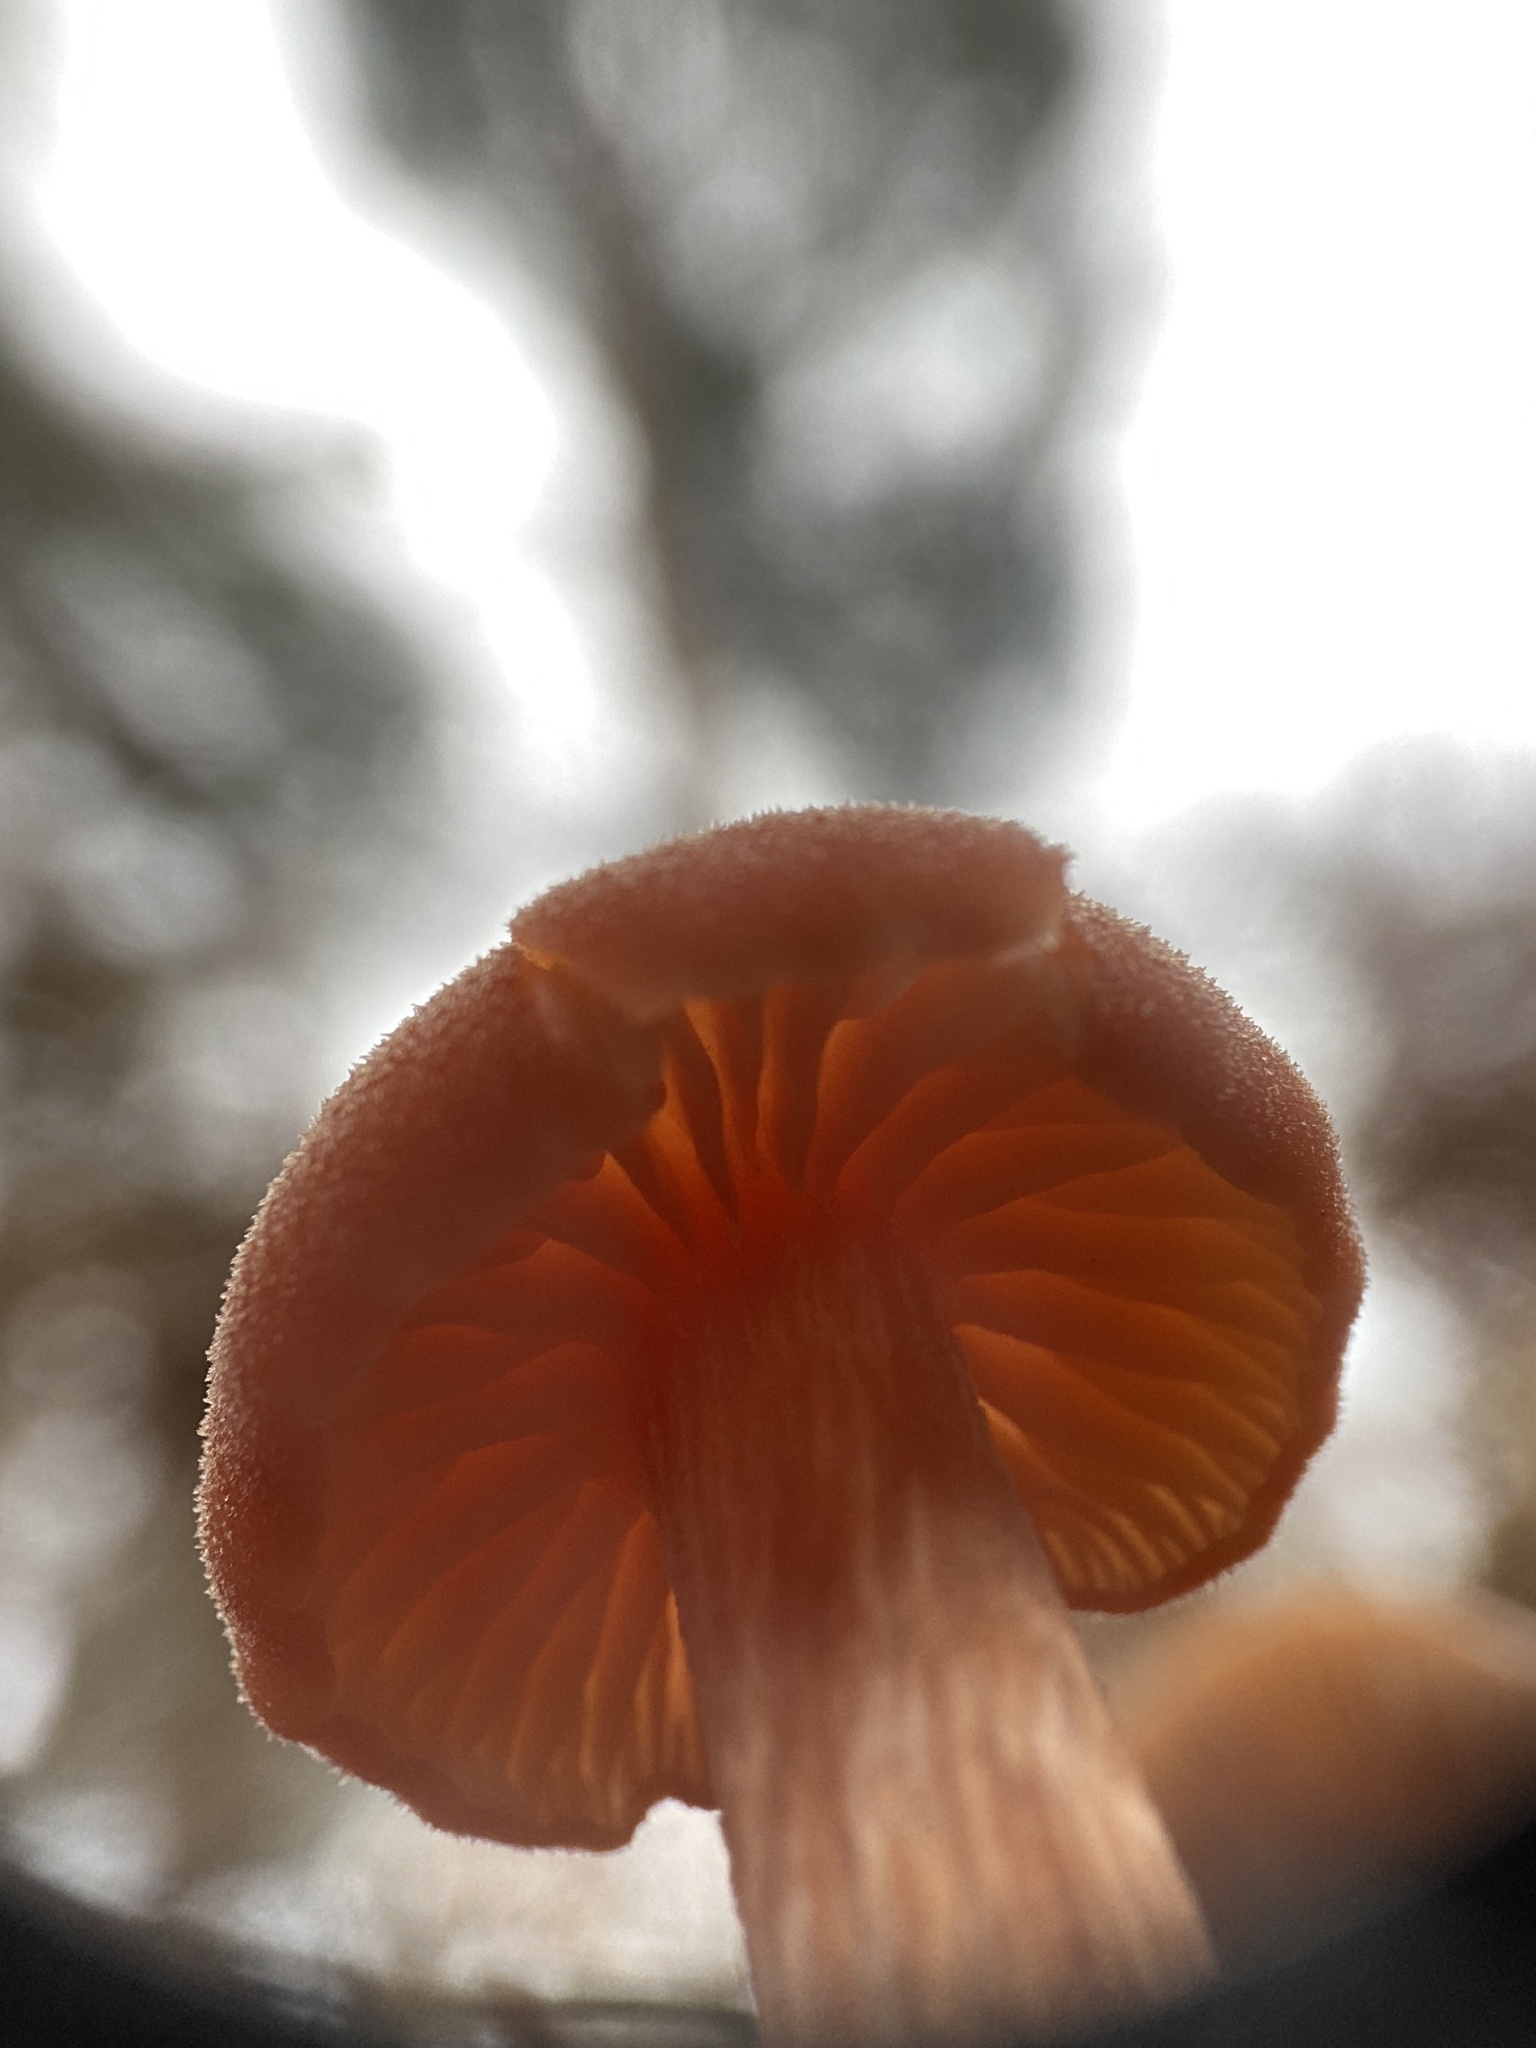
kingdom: Fungi
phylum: Basidiomycota
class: Agaricomycetes
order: Agaricales
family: Hydnangiaceae
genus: Laccaria
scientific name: Laccaria laccata
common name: Deceiver
